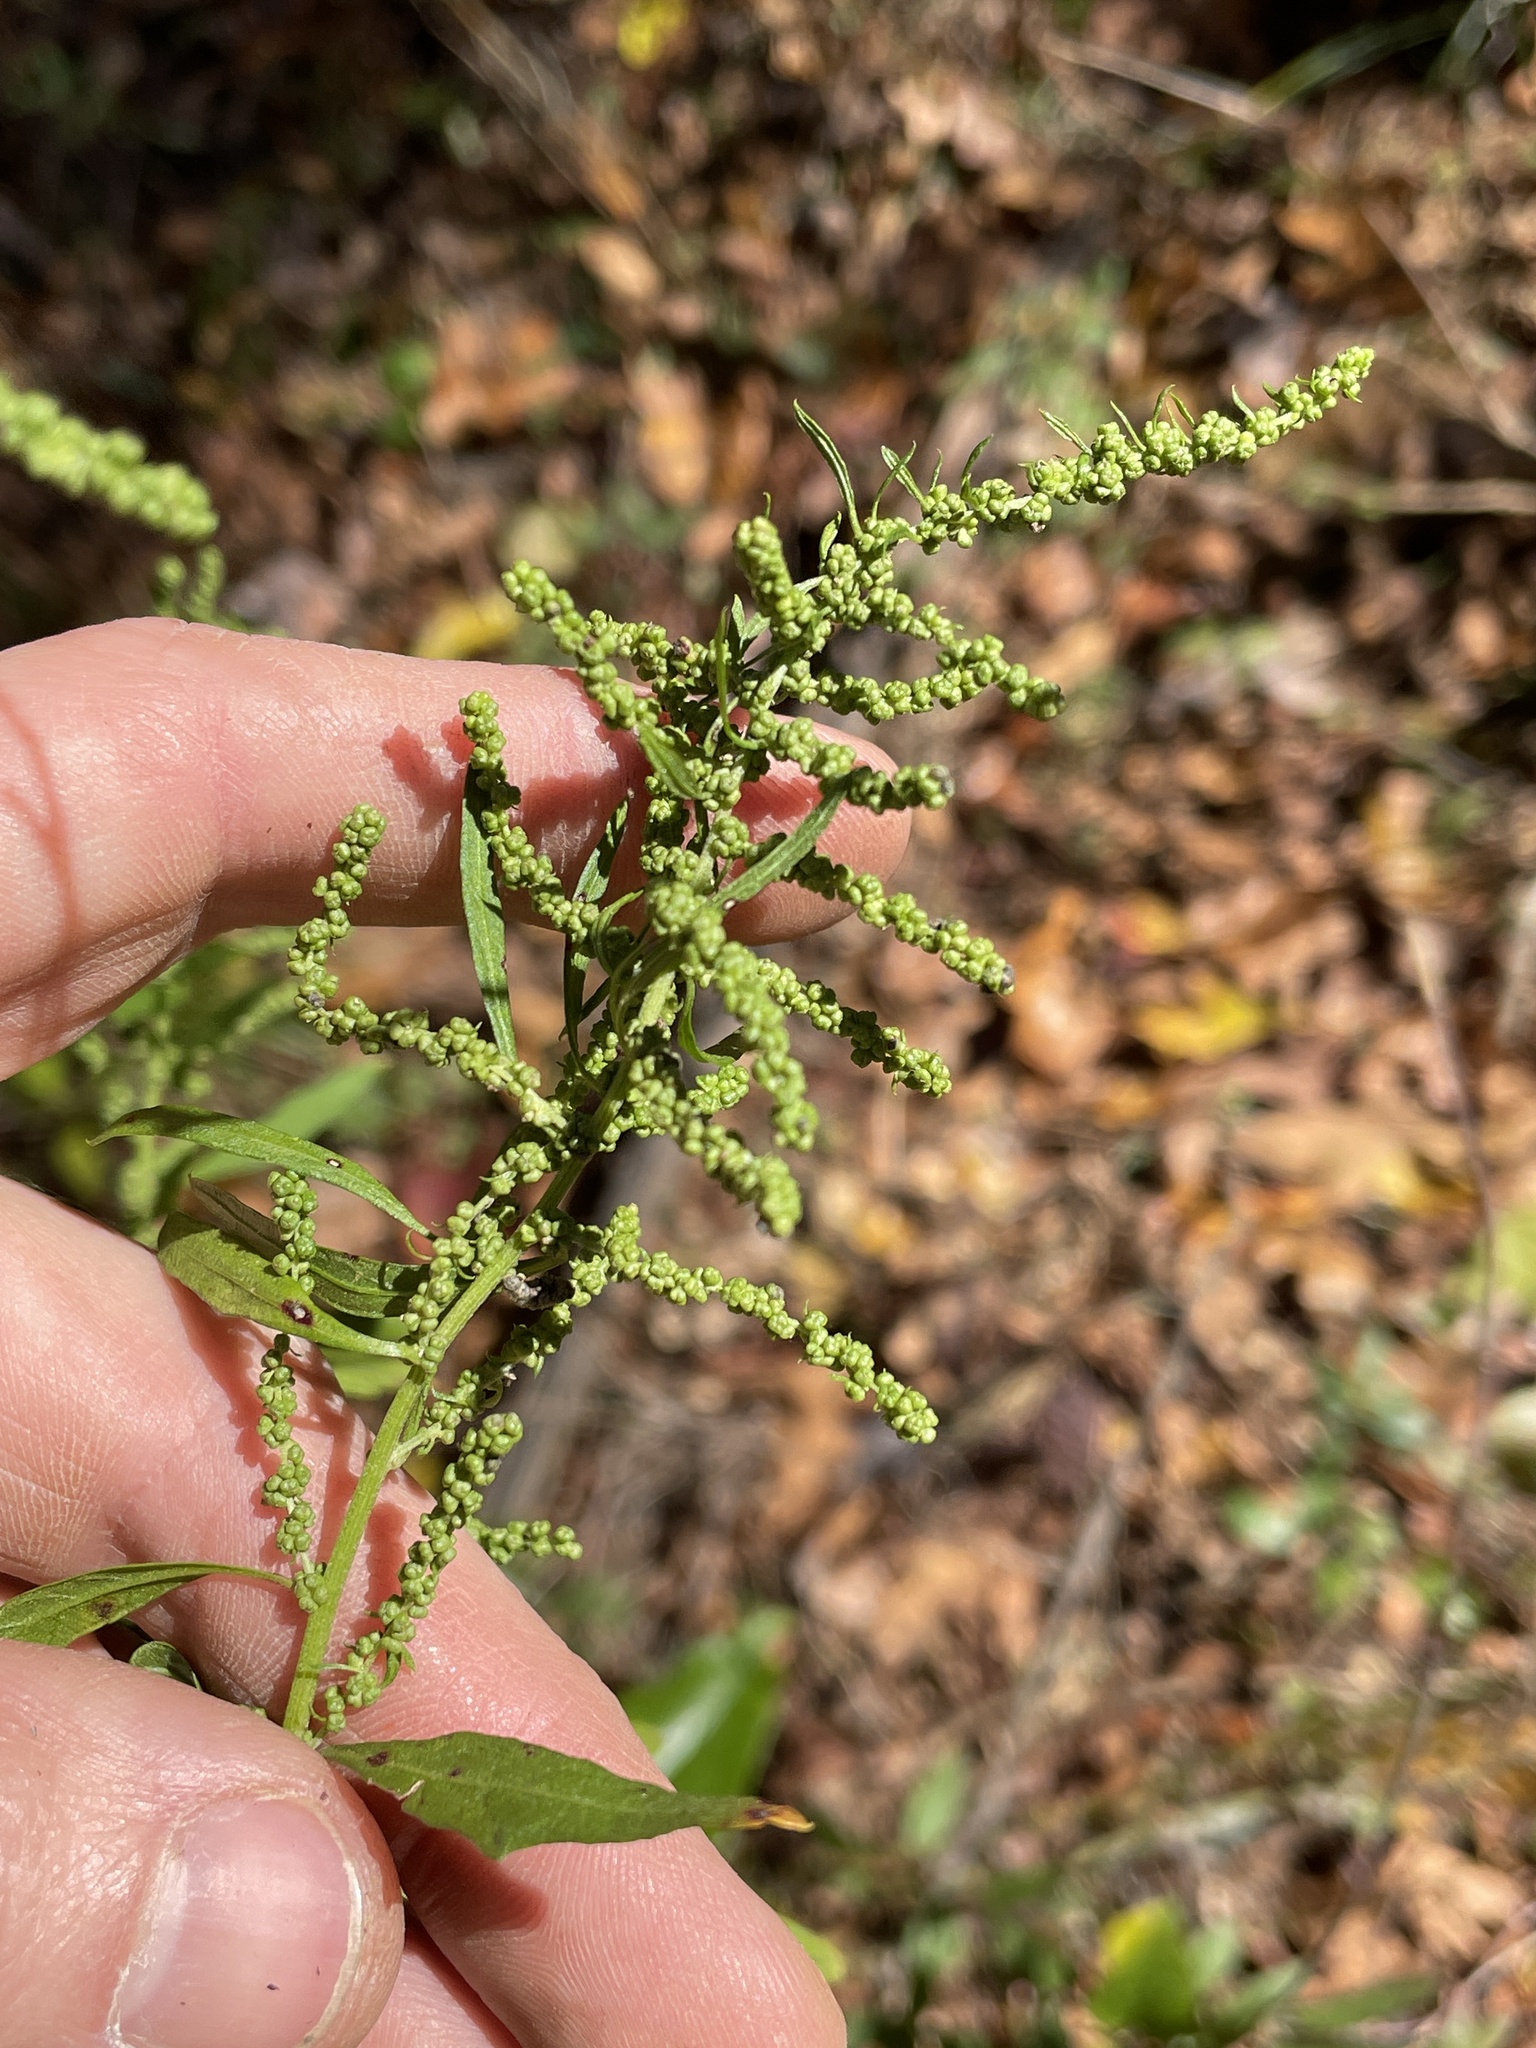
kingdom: Plantae
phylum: Tracheophyta
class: Magnoliopsida
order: Caryophyllales
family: Amaranthaceae
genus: Dysphania
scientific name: Dysphania ambrosioides
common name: Wormseed
